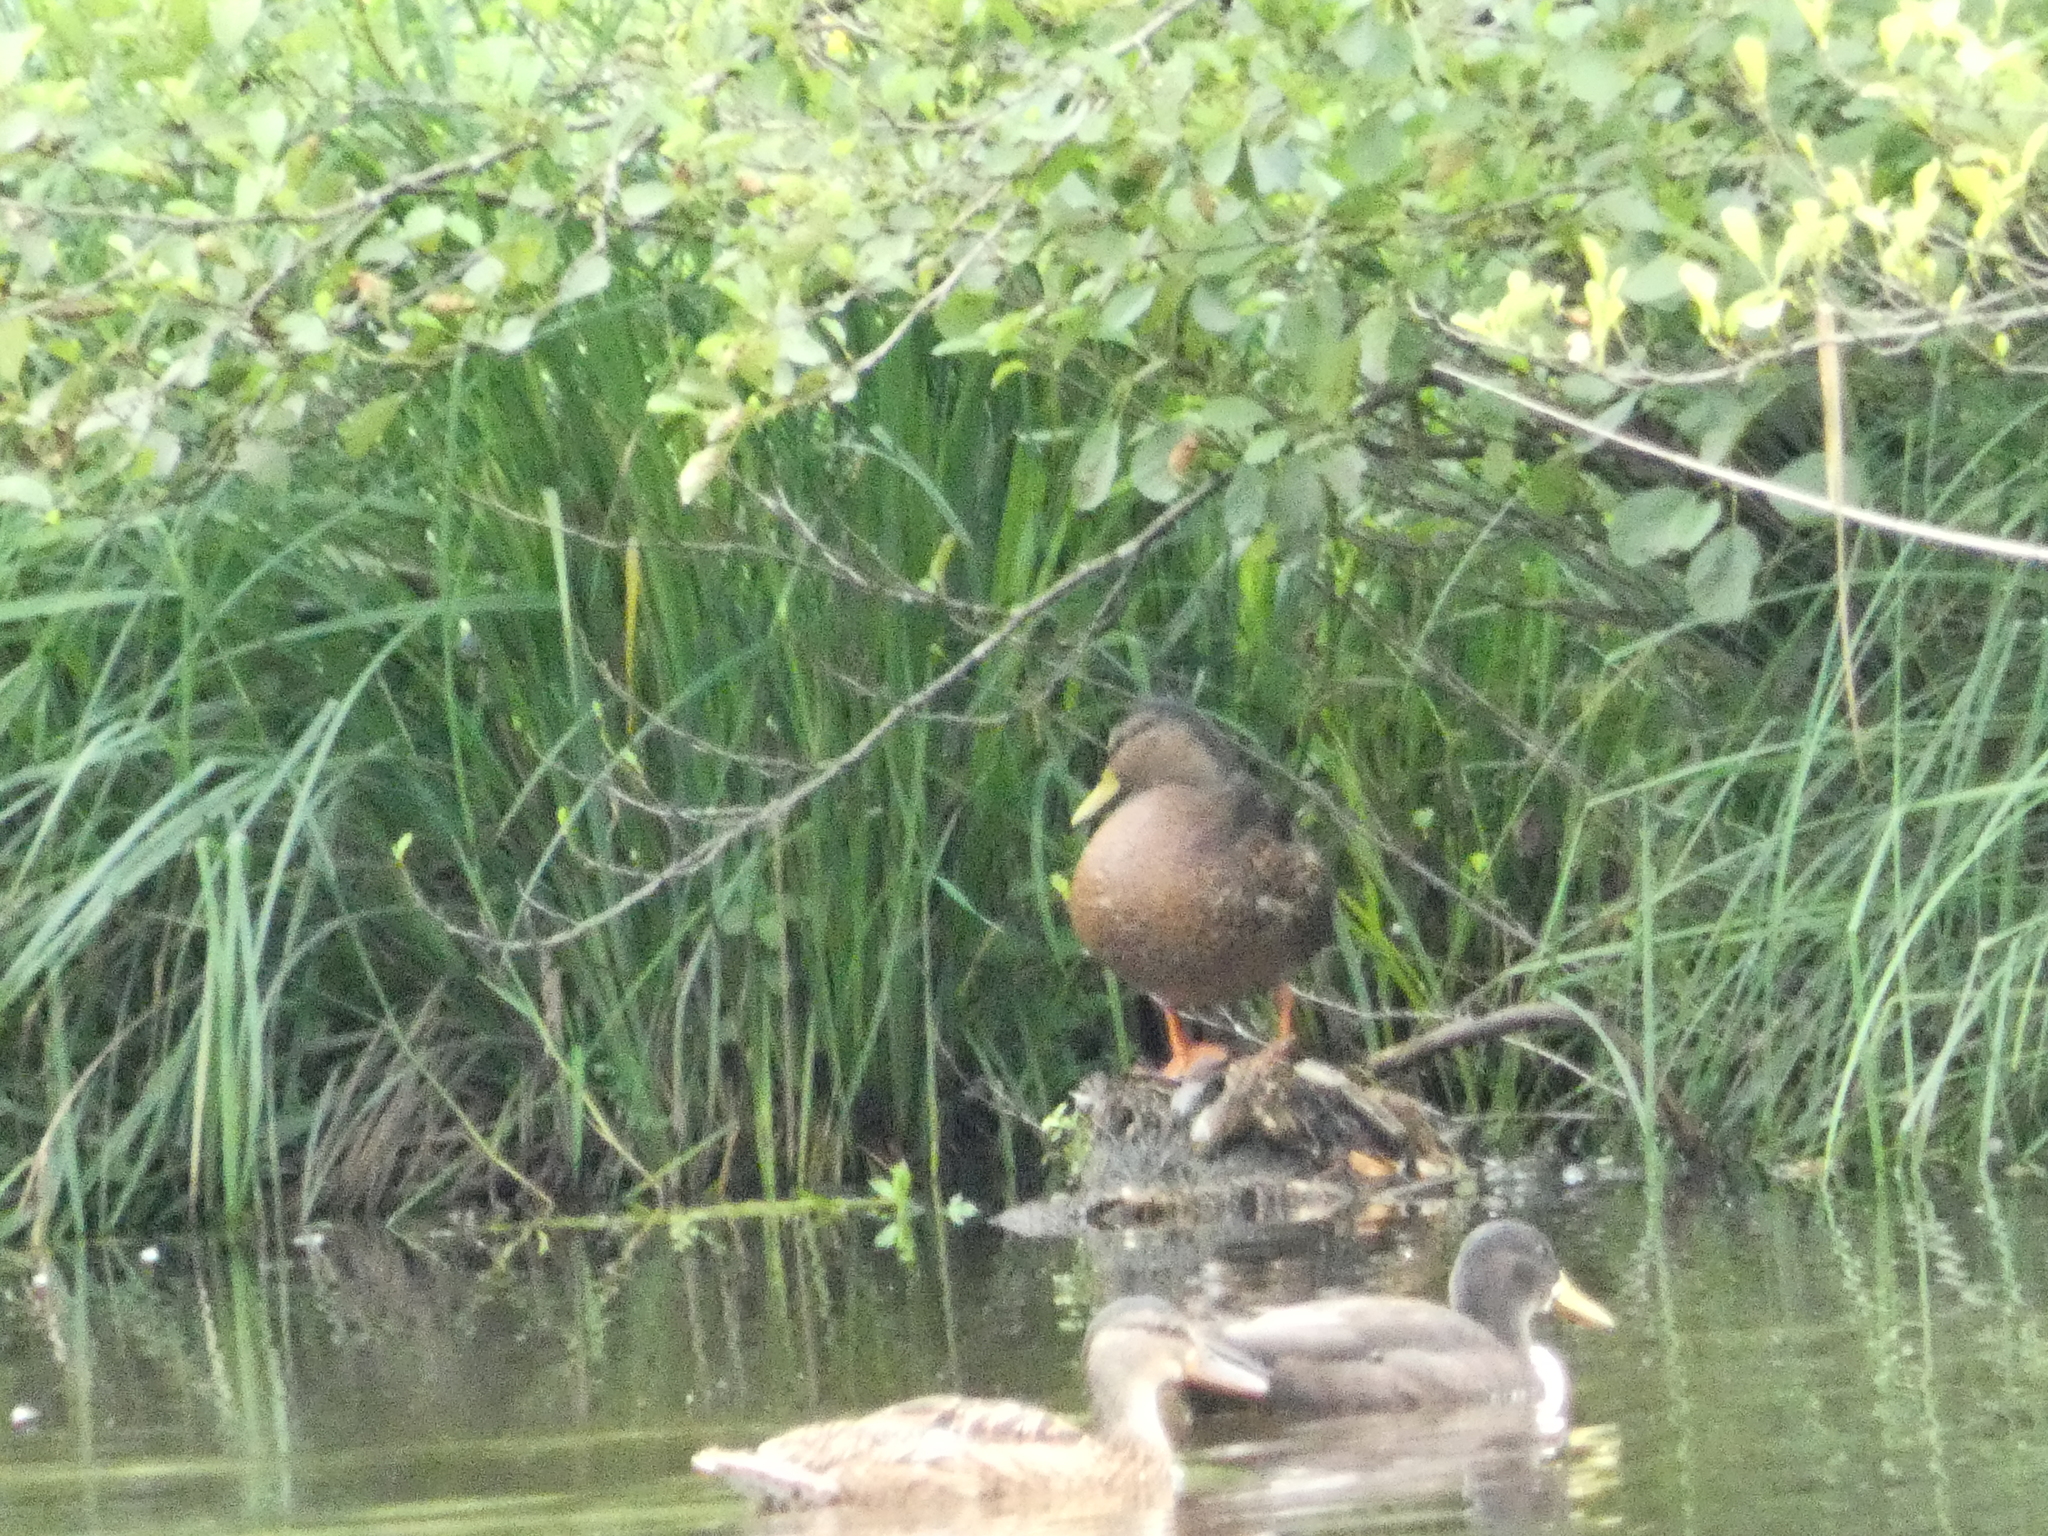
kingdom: Animalia
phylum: Chordata
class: Aves
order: Anseriformes
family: Anatidae
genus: Anas
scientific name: Anas platyrhynchos
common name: Mallard
